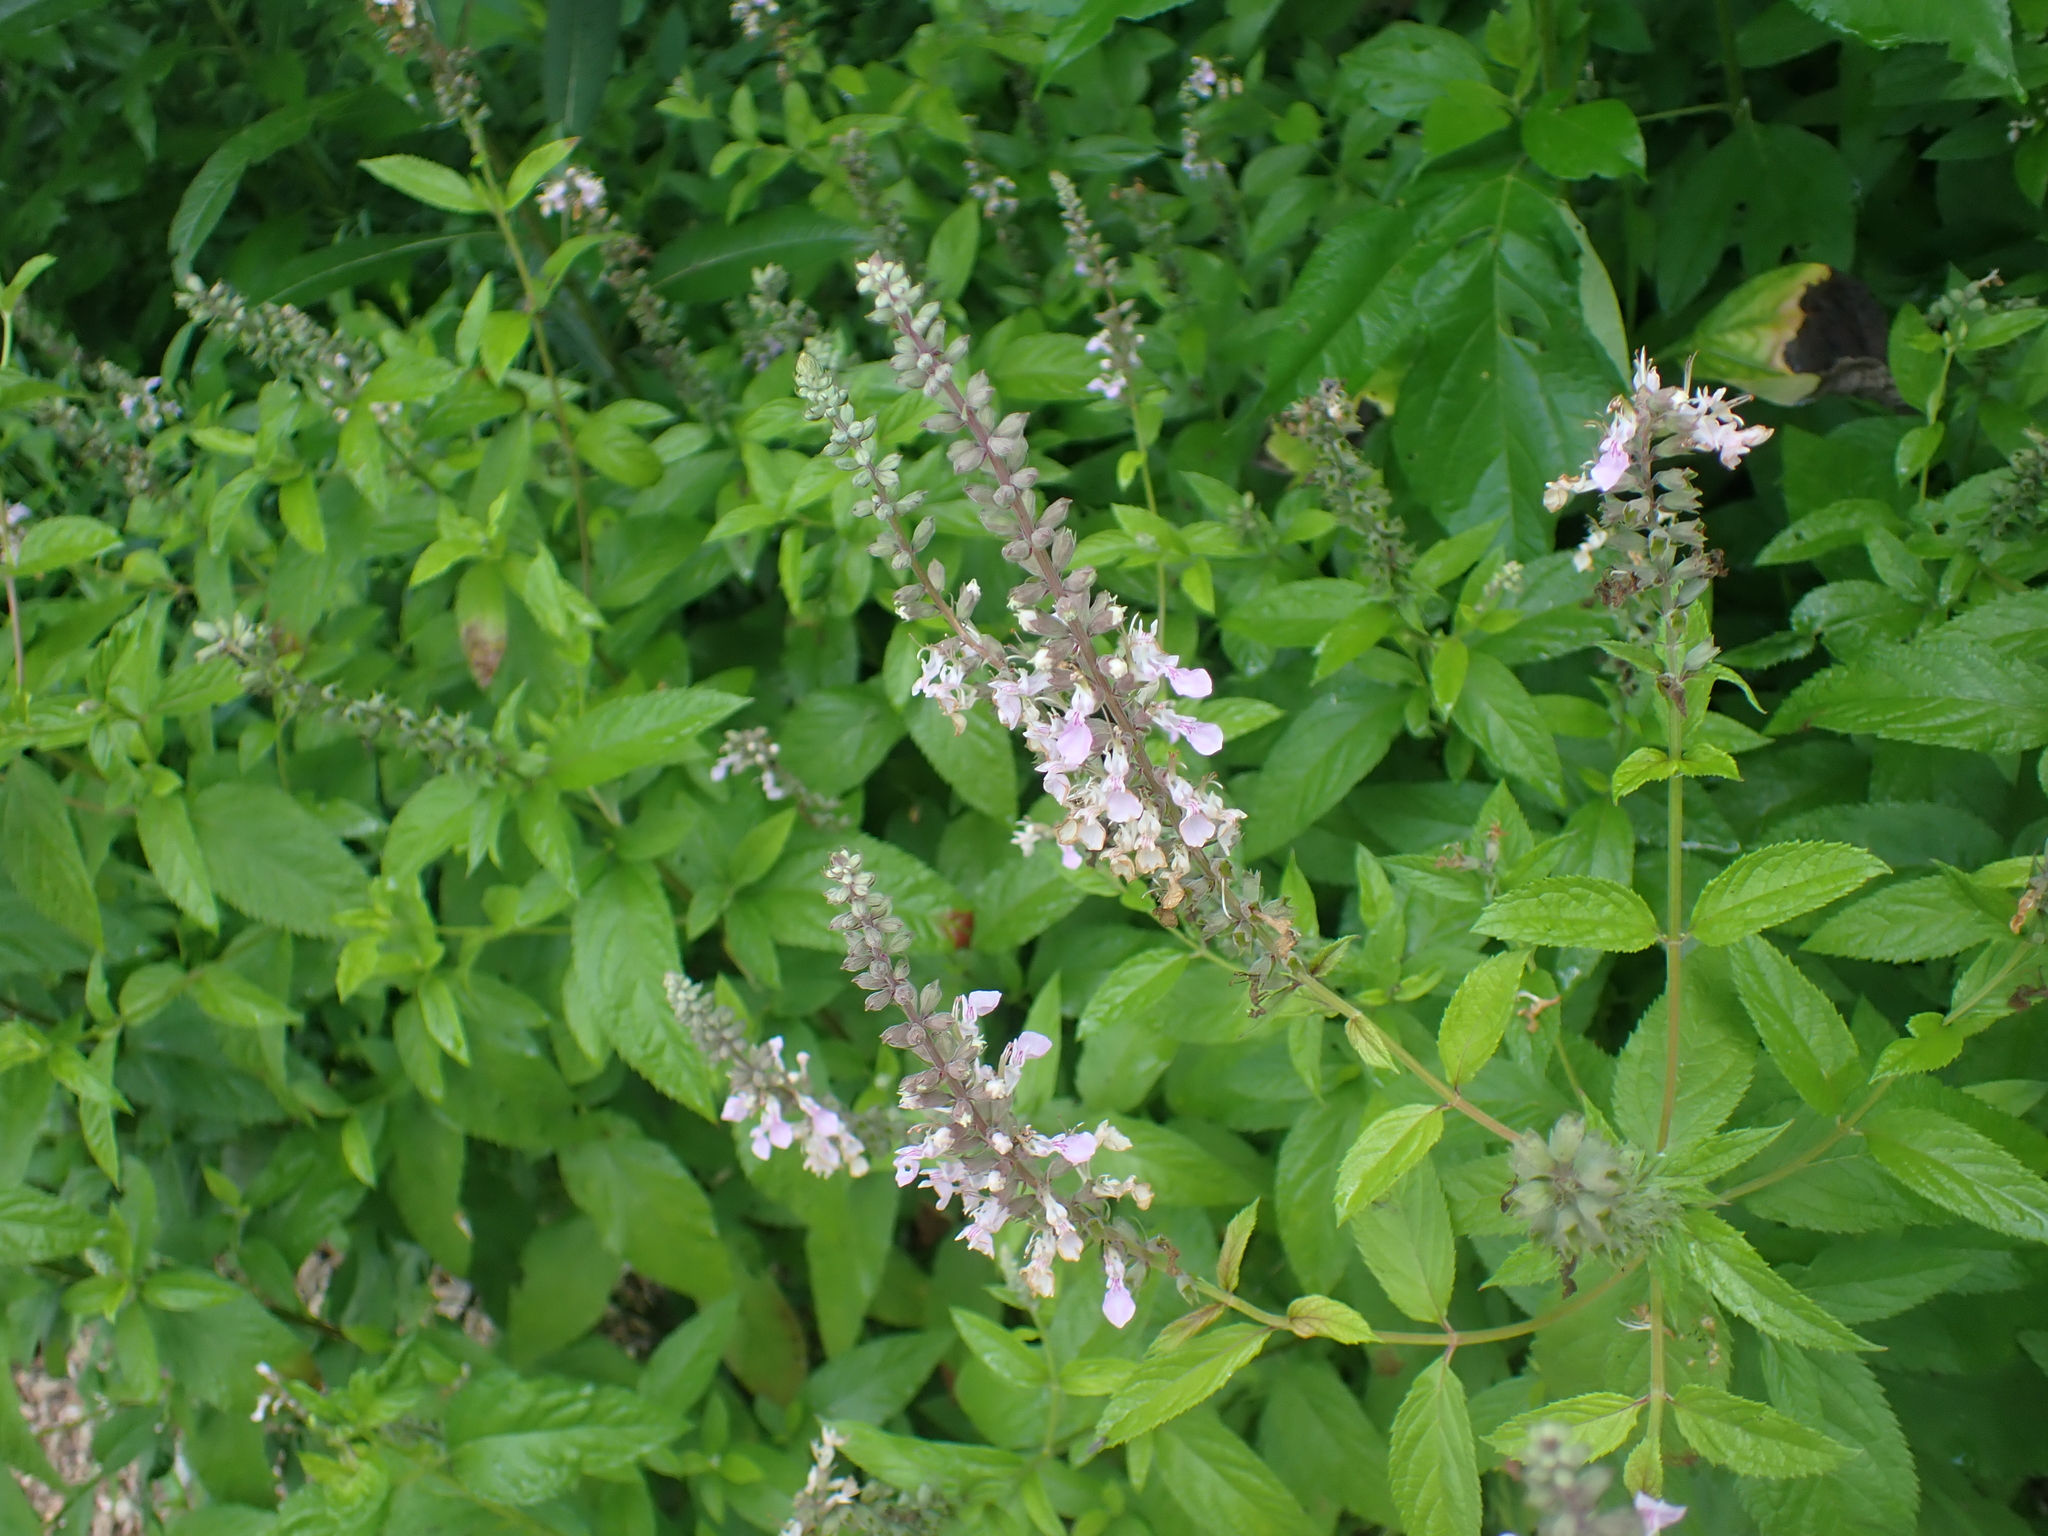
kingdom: Plantae
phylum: Tracheophyta
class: Magnoliopsida
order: Lamiales
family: Lamiaceae
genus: Teucrium
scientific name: Teucrium canadense
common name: American germander
